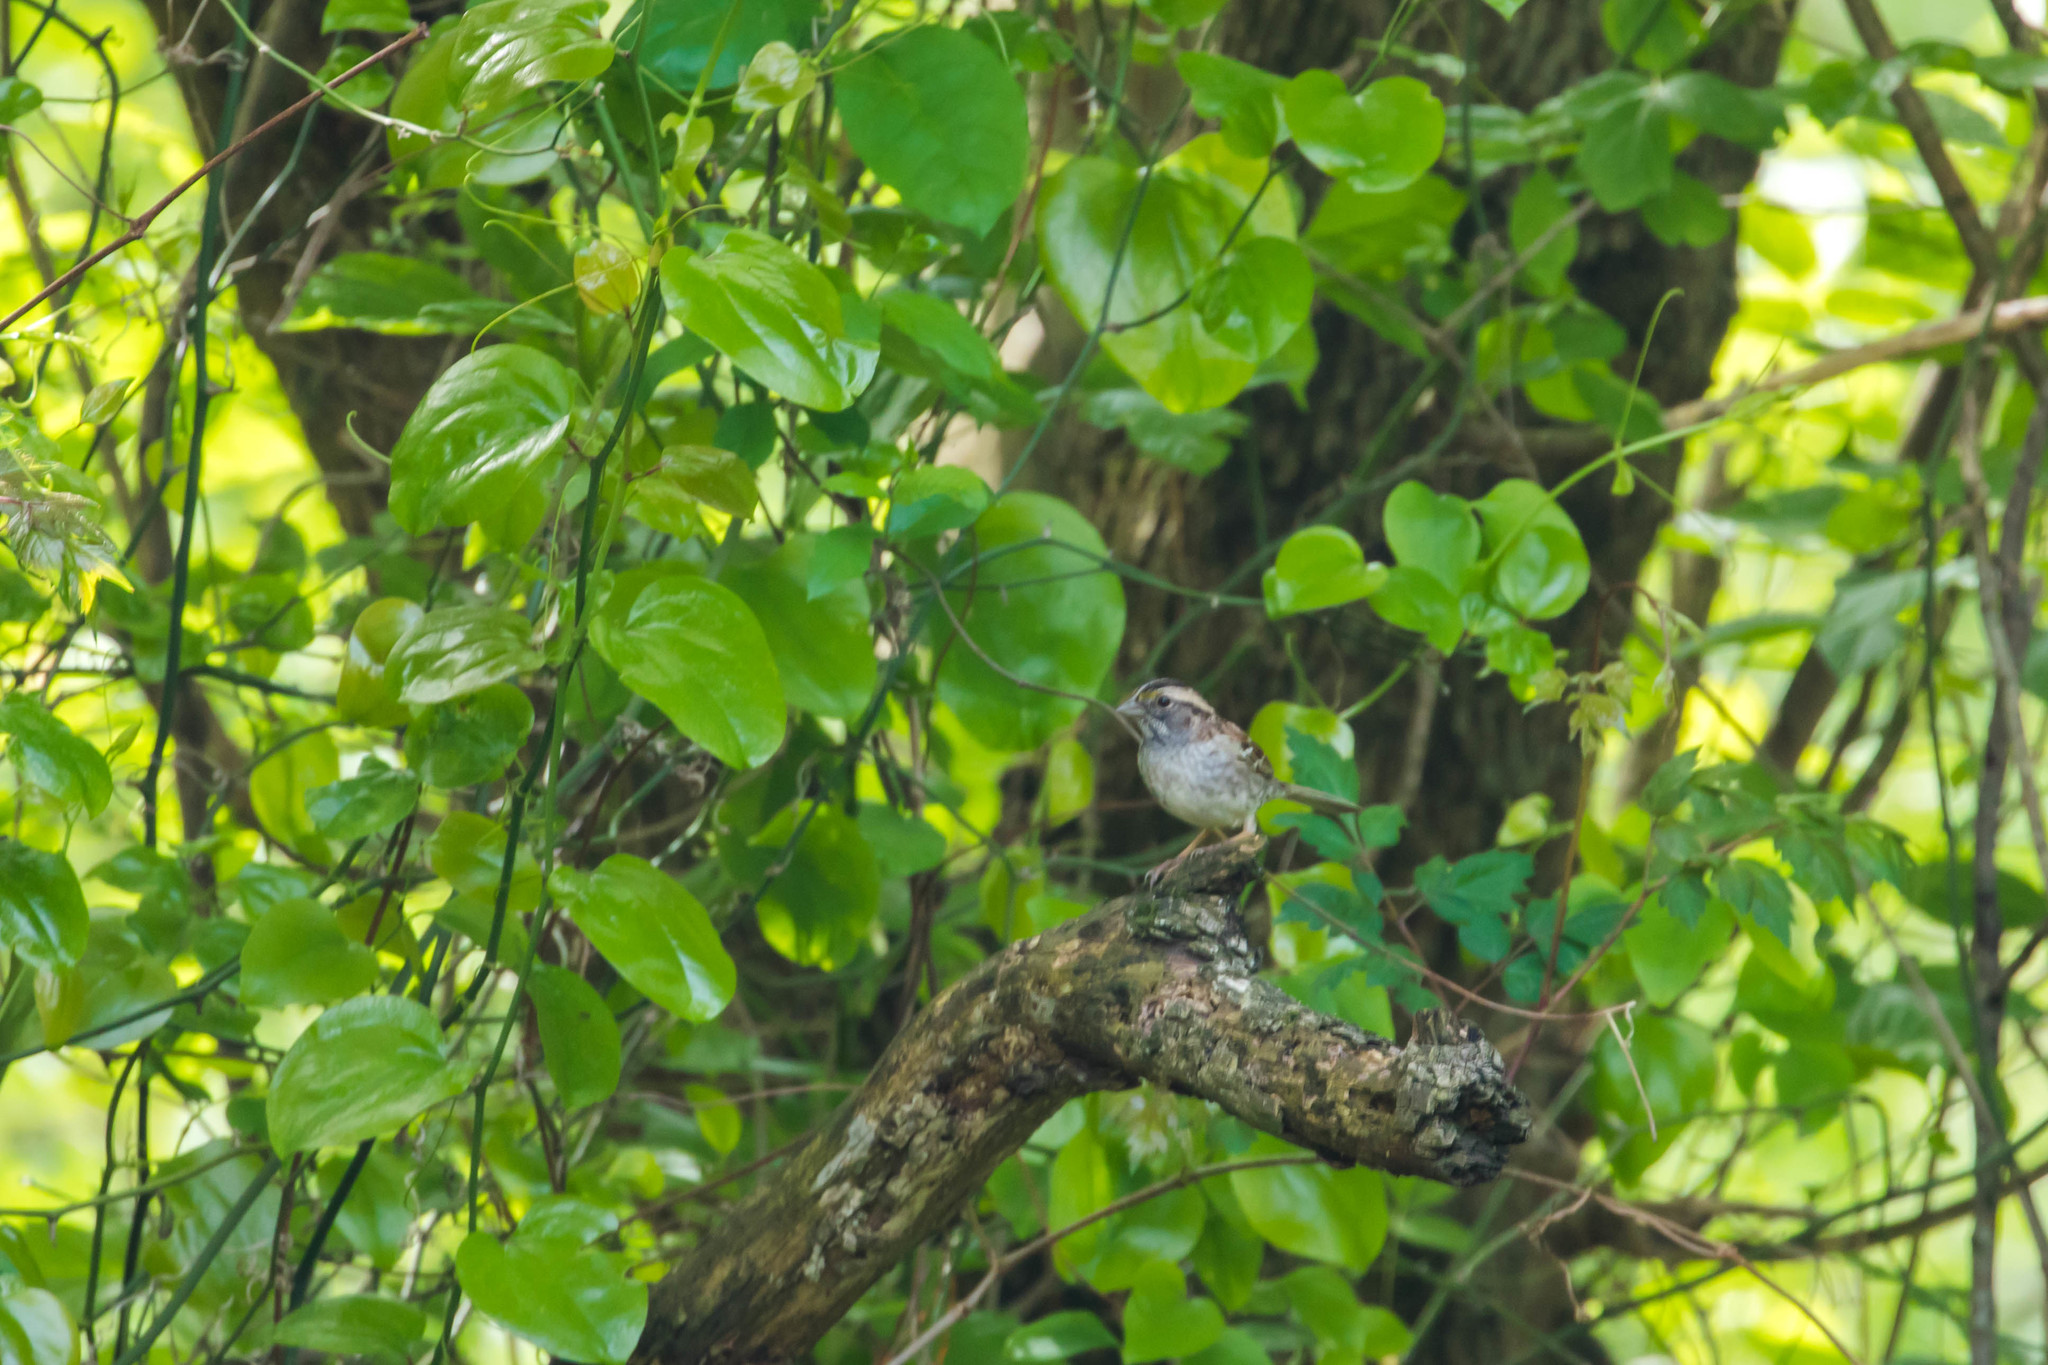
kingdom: Animalia
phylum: Chordata
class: Aves
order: Passeriformes
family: Passerellidae
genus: Zonotrichia
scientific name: Zonotrichia albicollis
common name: White-throated sparrow
